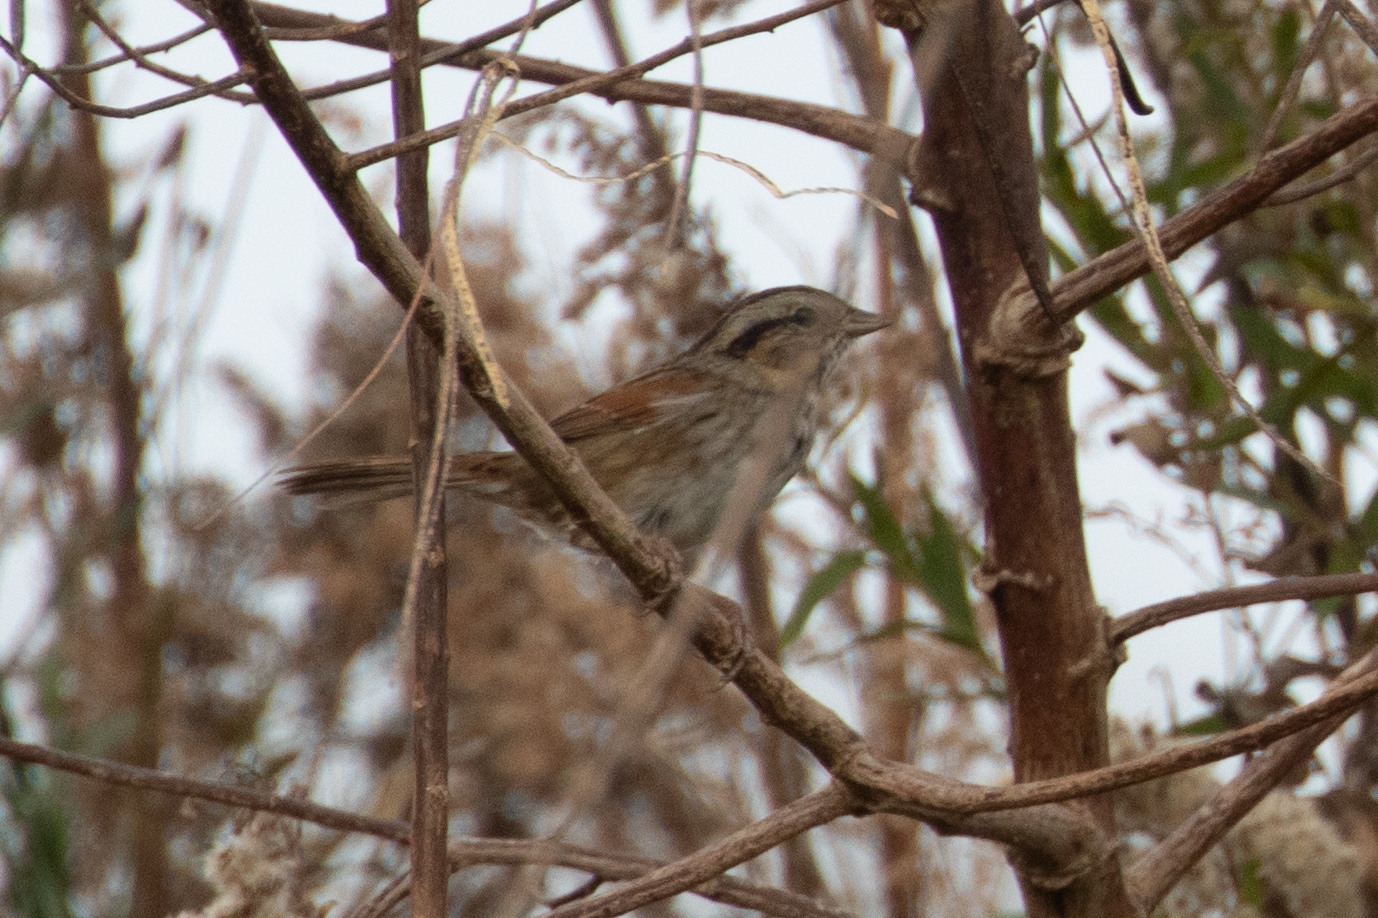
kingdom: Animalia
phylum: Chordata
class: Aves
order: Passeriformes
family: Passerellidae
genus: Melospiza
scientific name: Melospiza georgiana
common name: Swamp sparrow
